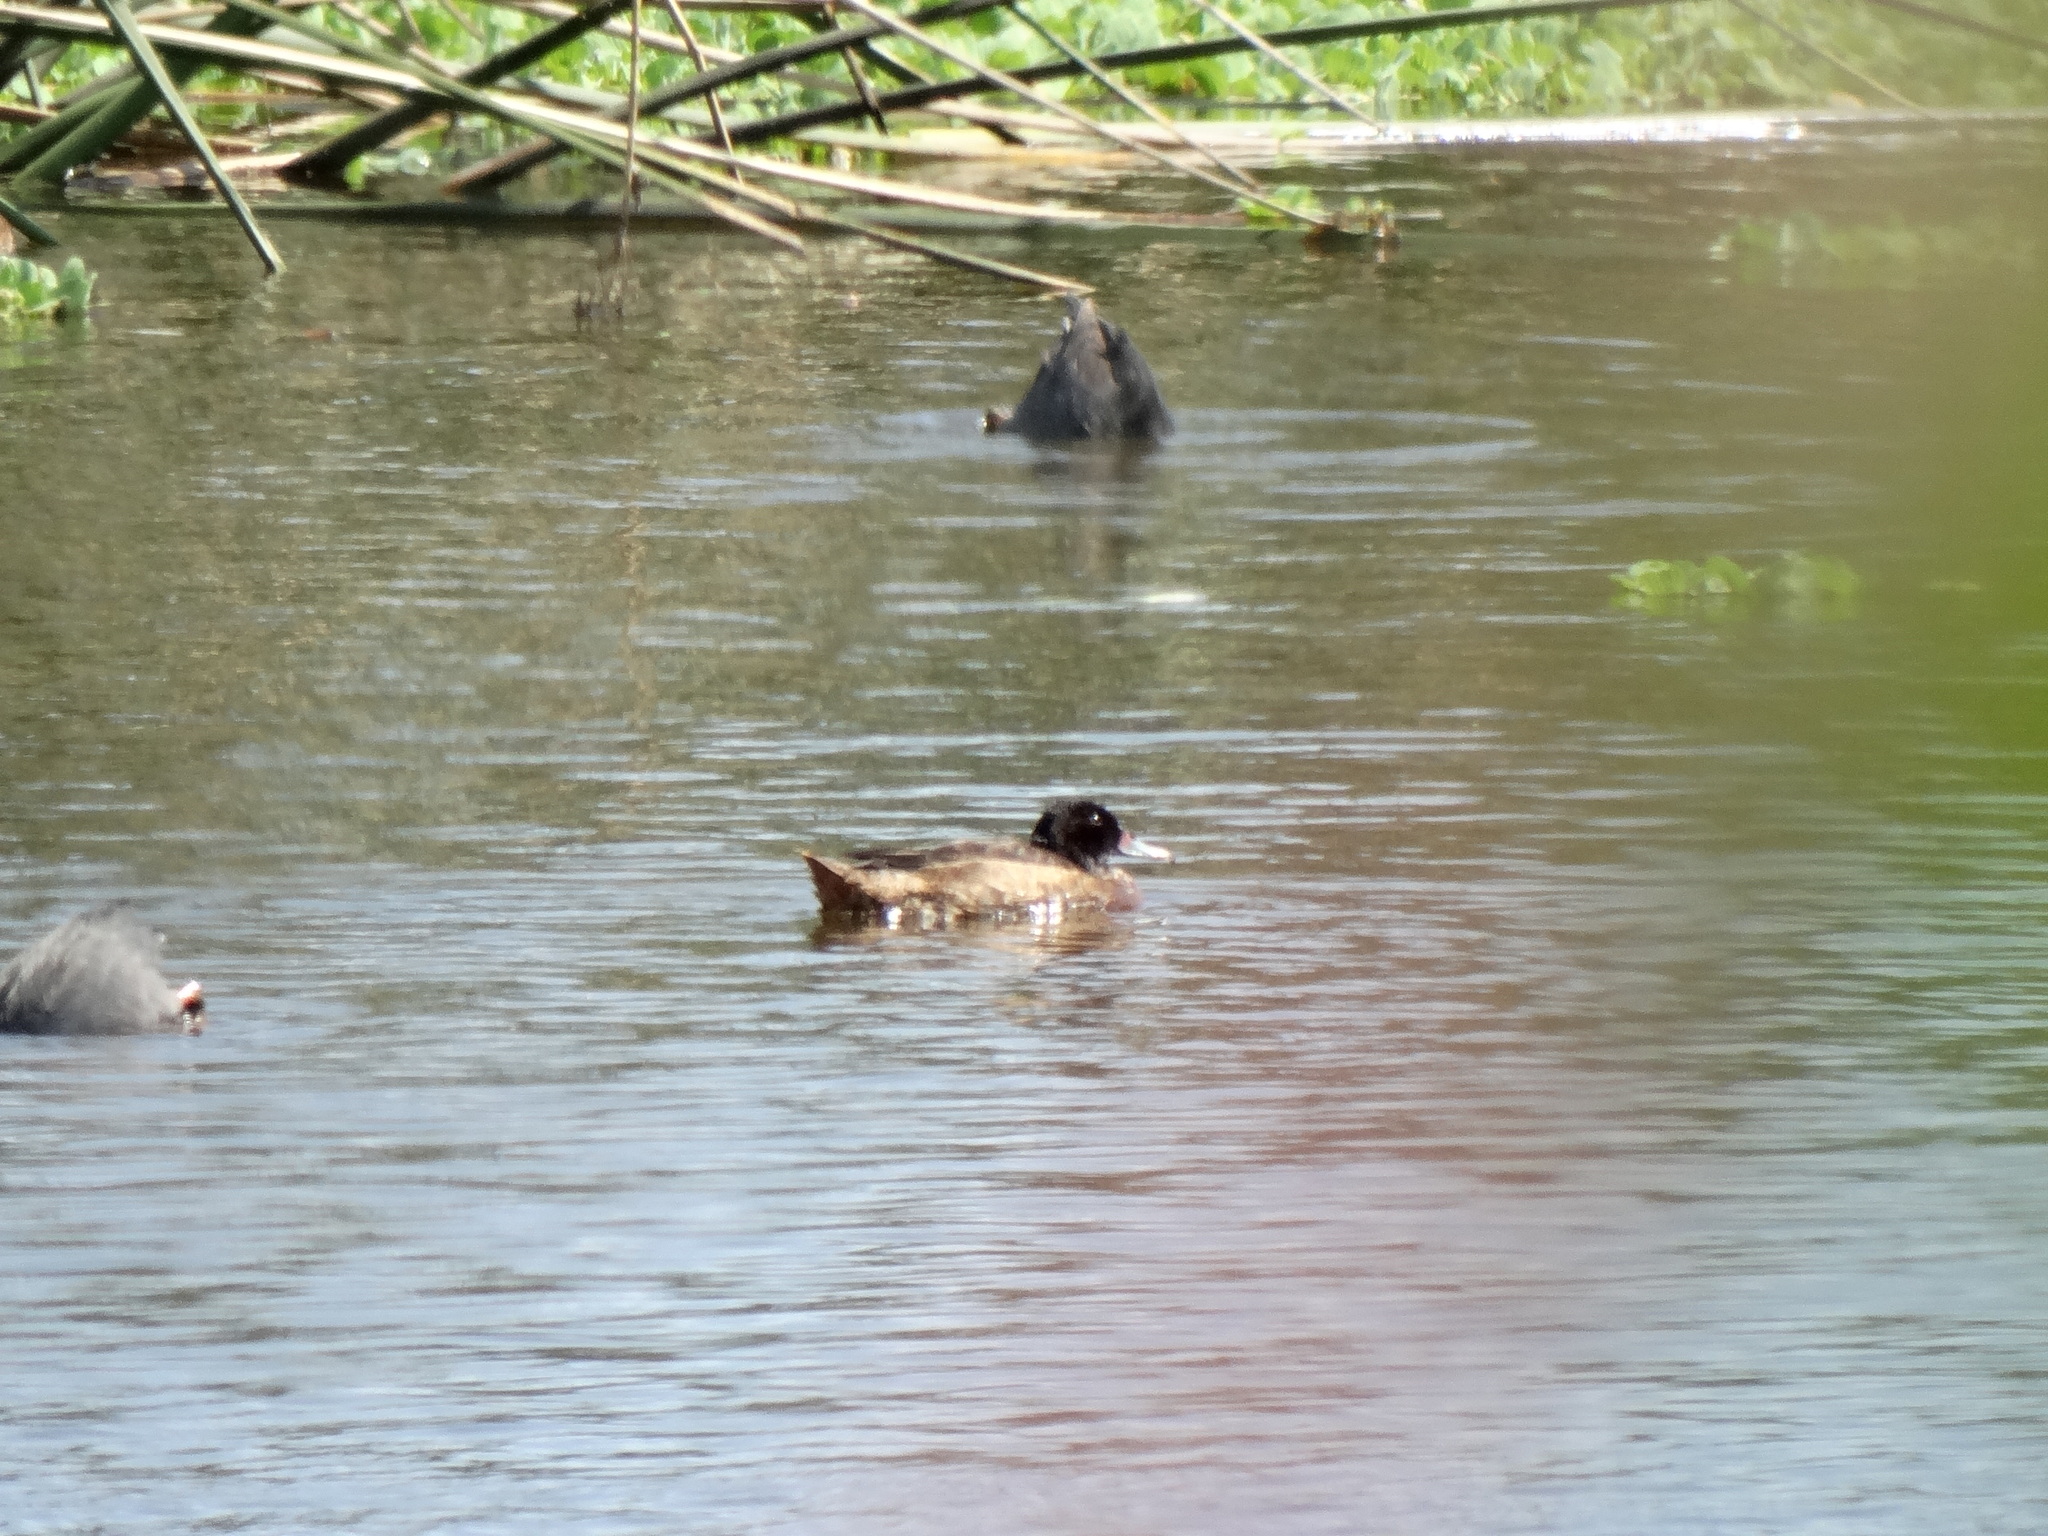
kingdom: Animalia
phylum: Chordata
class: Aves
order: Anseriformes
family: Anatidae
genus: Heteronetta
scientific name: Heteronetta atricapilla
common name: Black-headed duck
